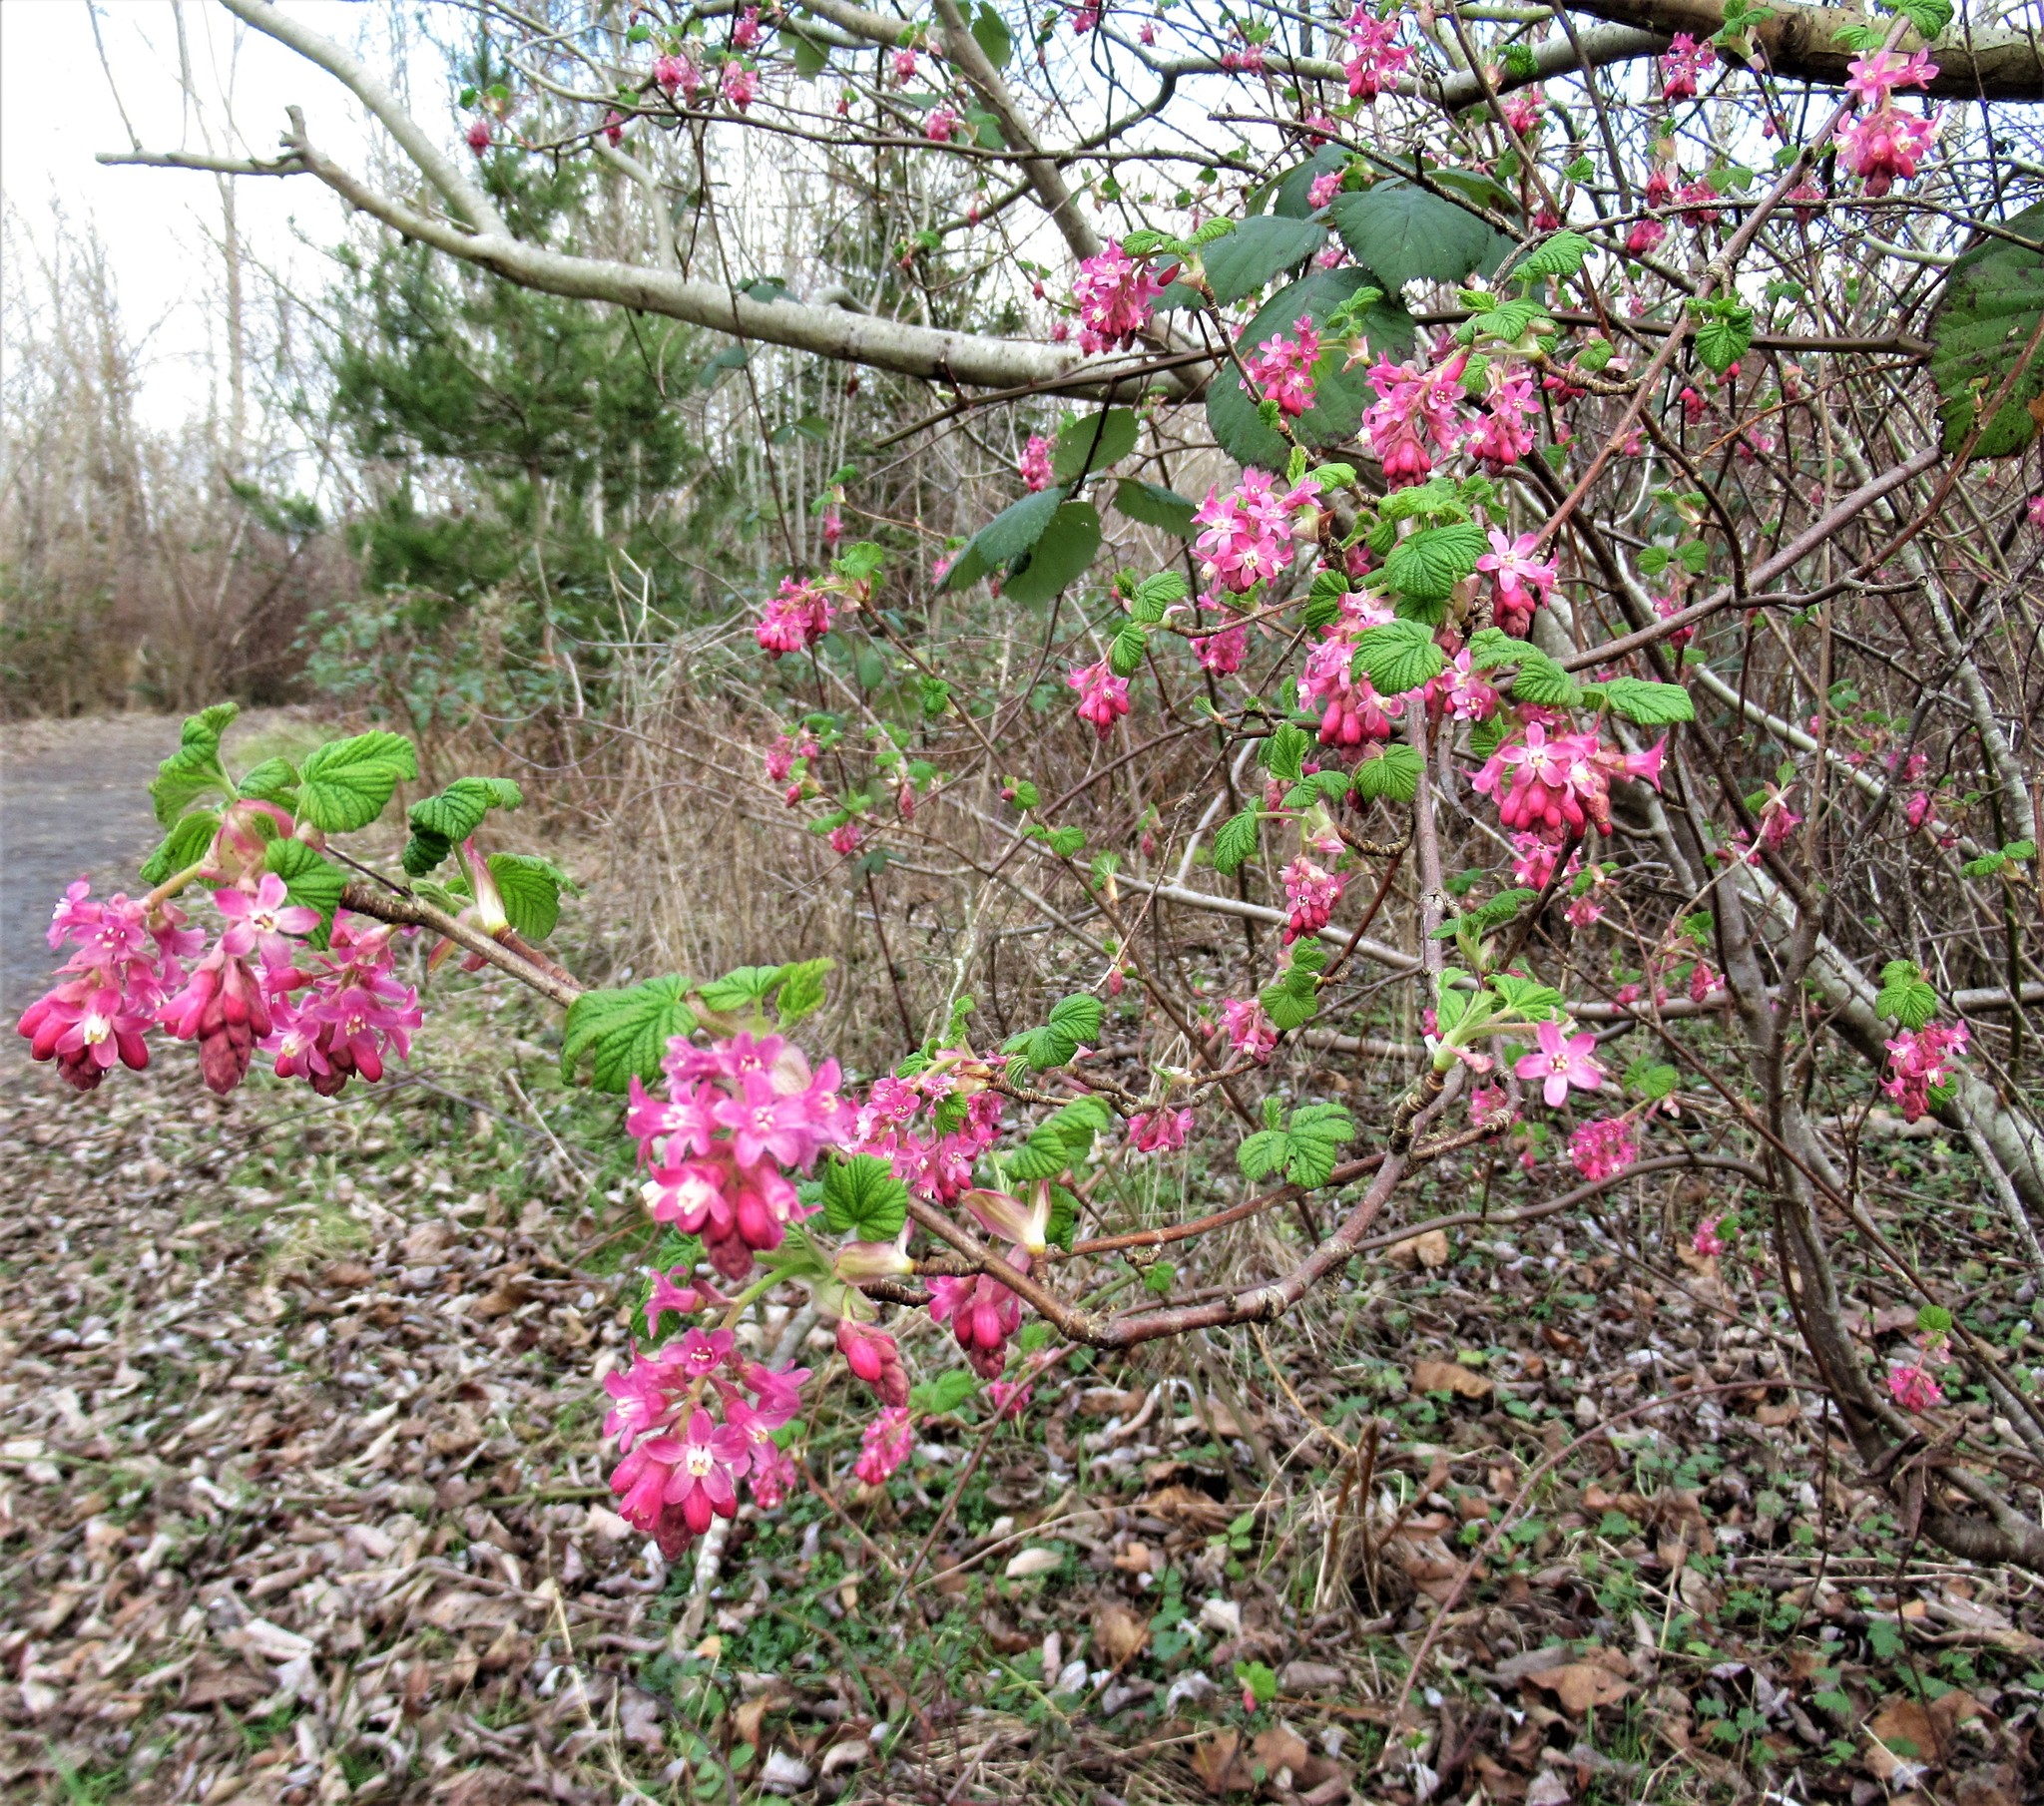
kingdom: Plantae
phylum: Tracheophyta
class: Magnoliopsida
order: Saxifragales
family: Grossulariaceae
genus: Ribes
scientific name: Ribes sanguineum
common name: Flowering currant
